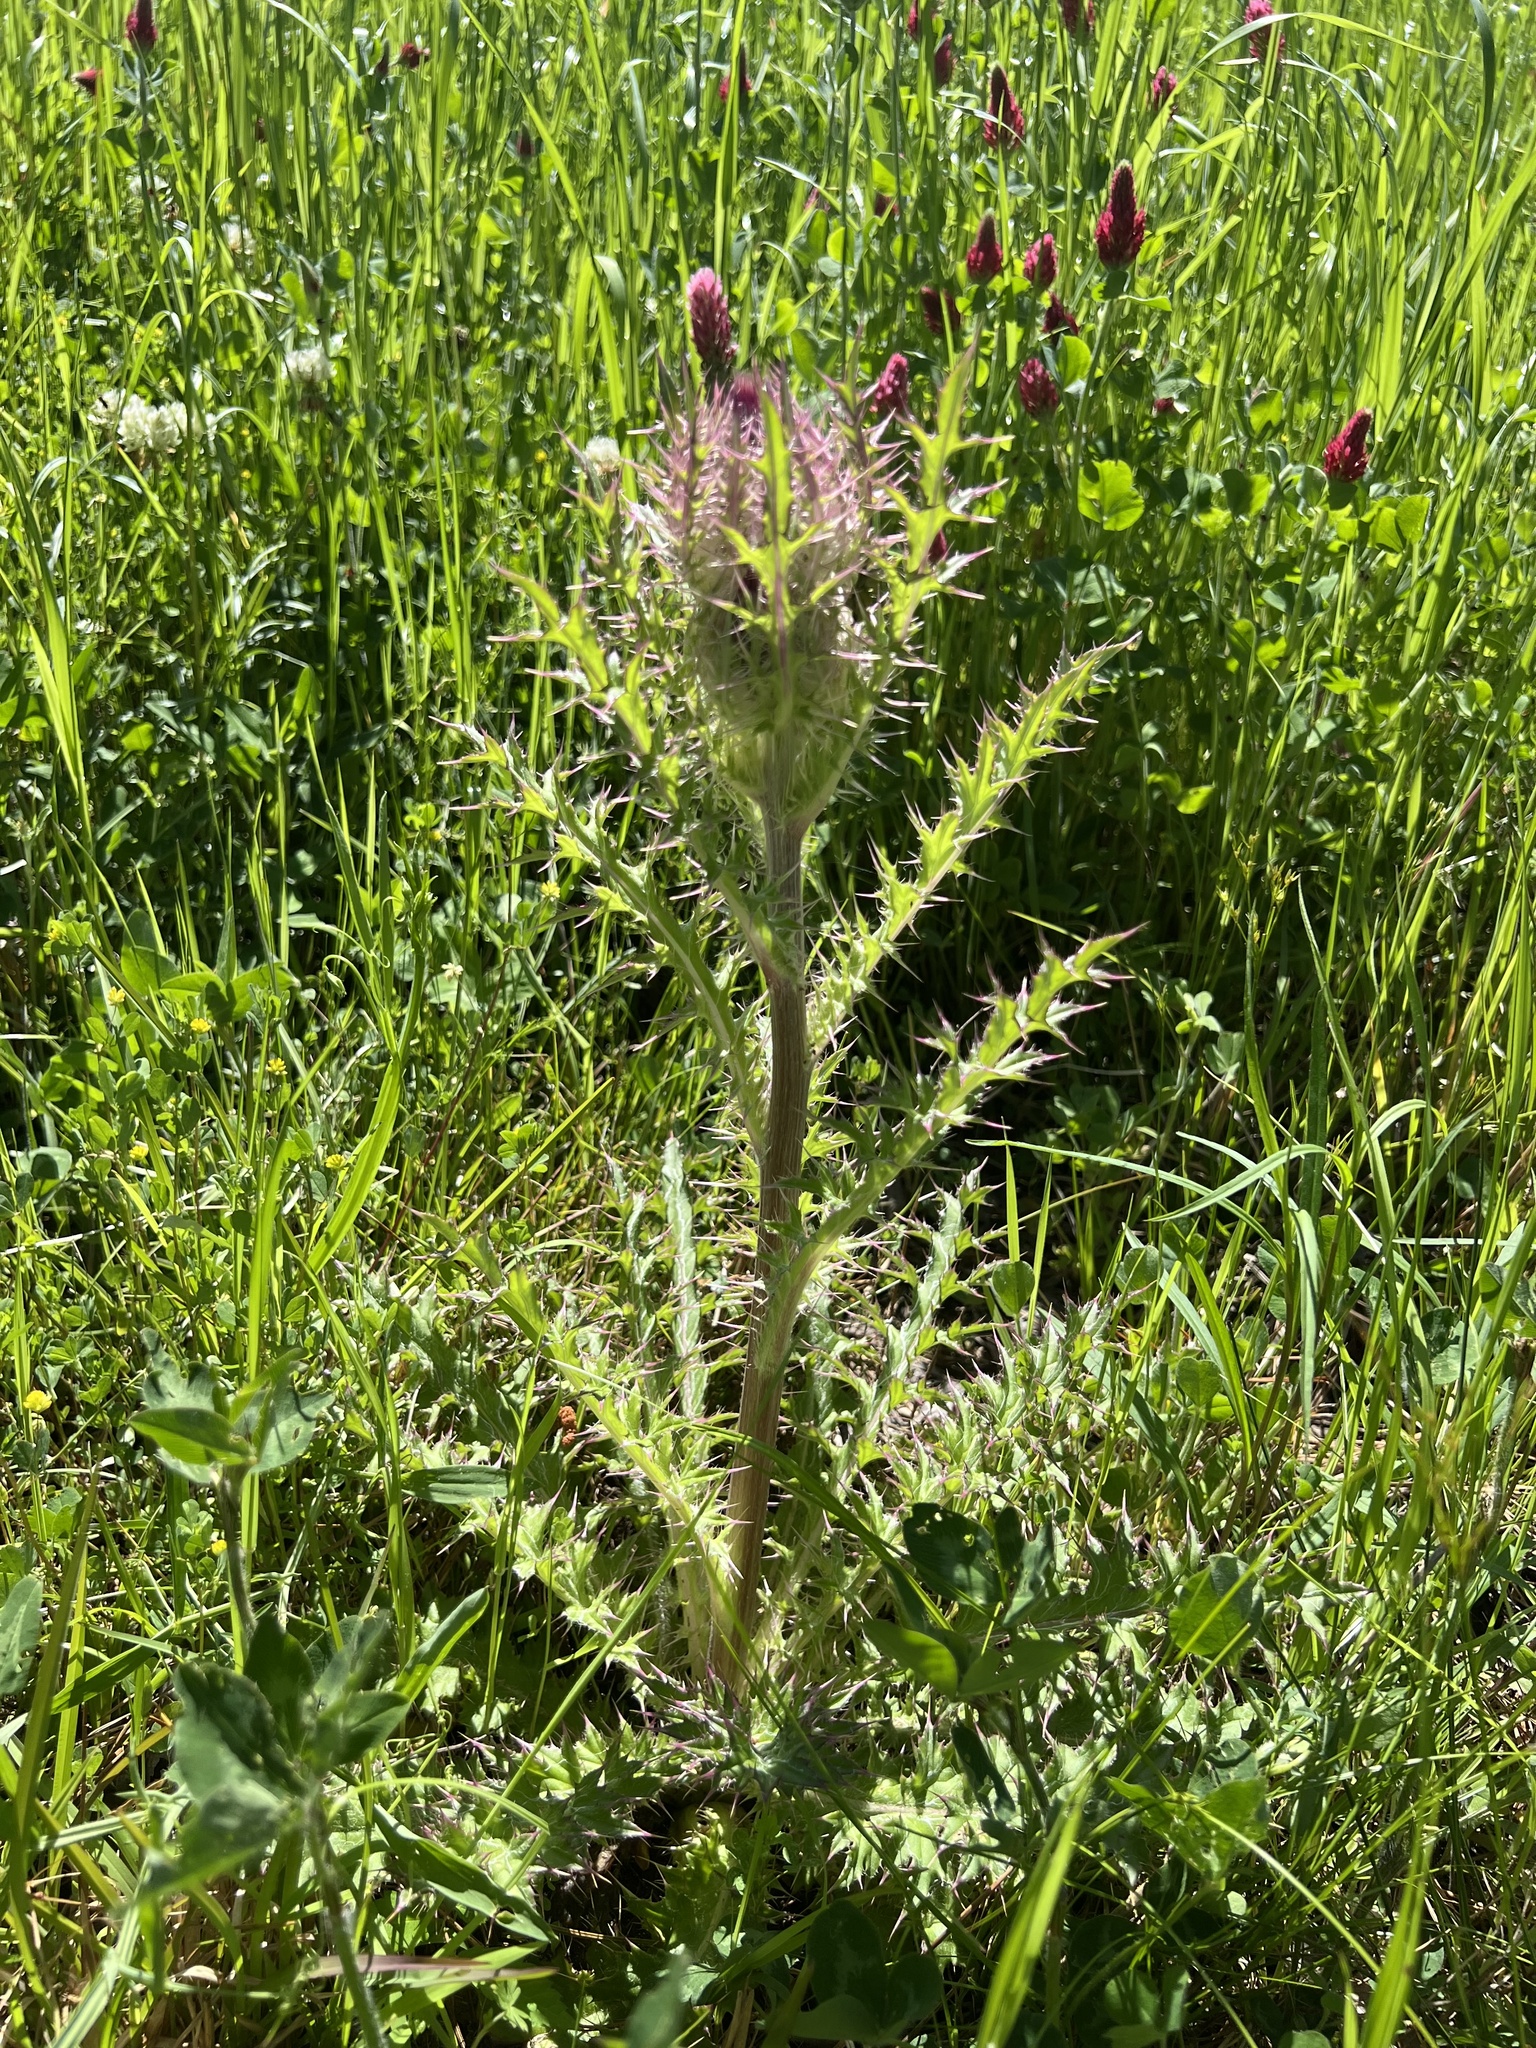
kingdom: Plantae
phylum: Tracheophyta
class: Magnoliopsida
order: Asterales
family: Asteraceae
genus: Cirsium
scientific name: Cirsium horridulum
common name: Bristly thistle
